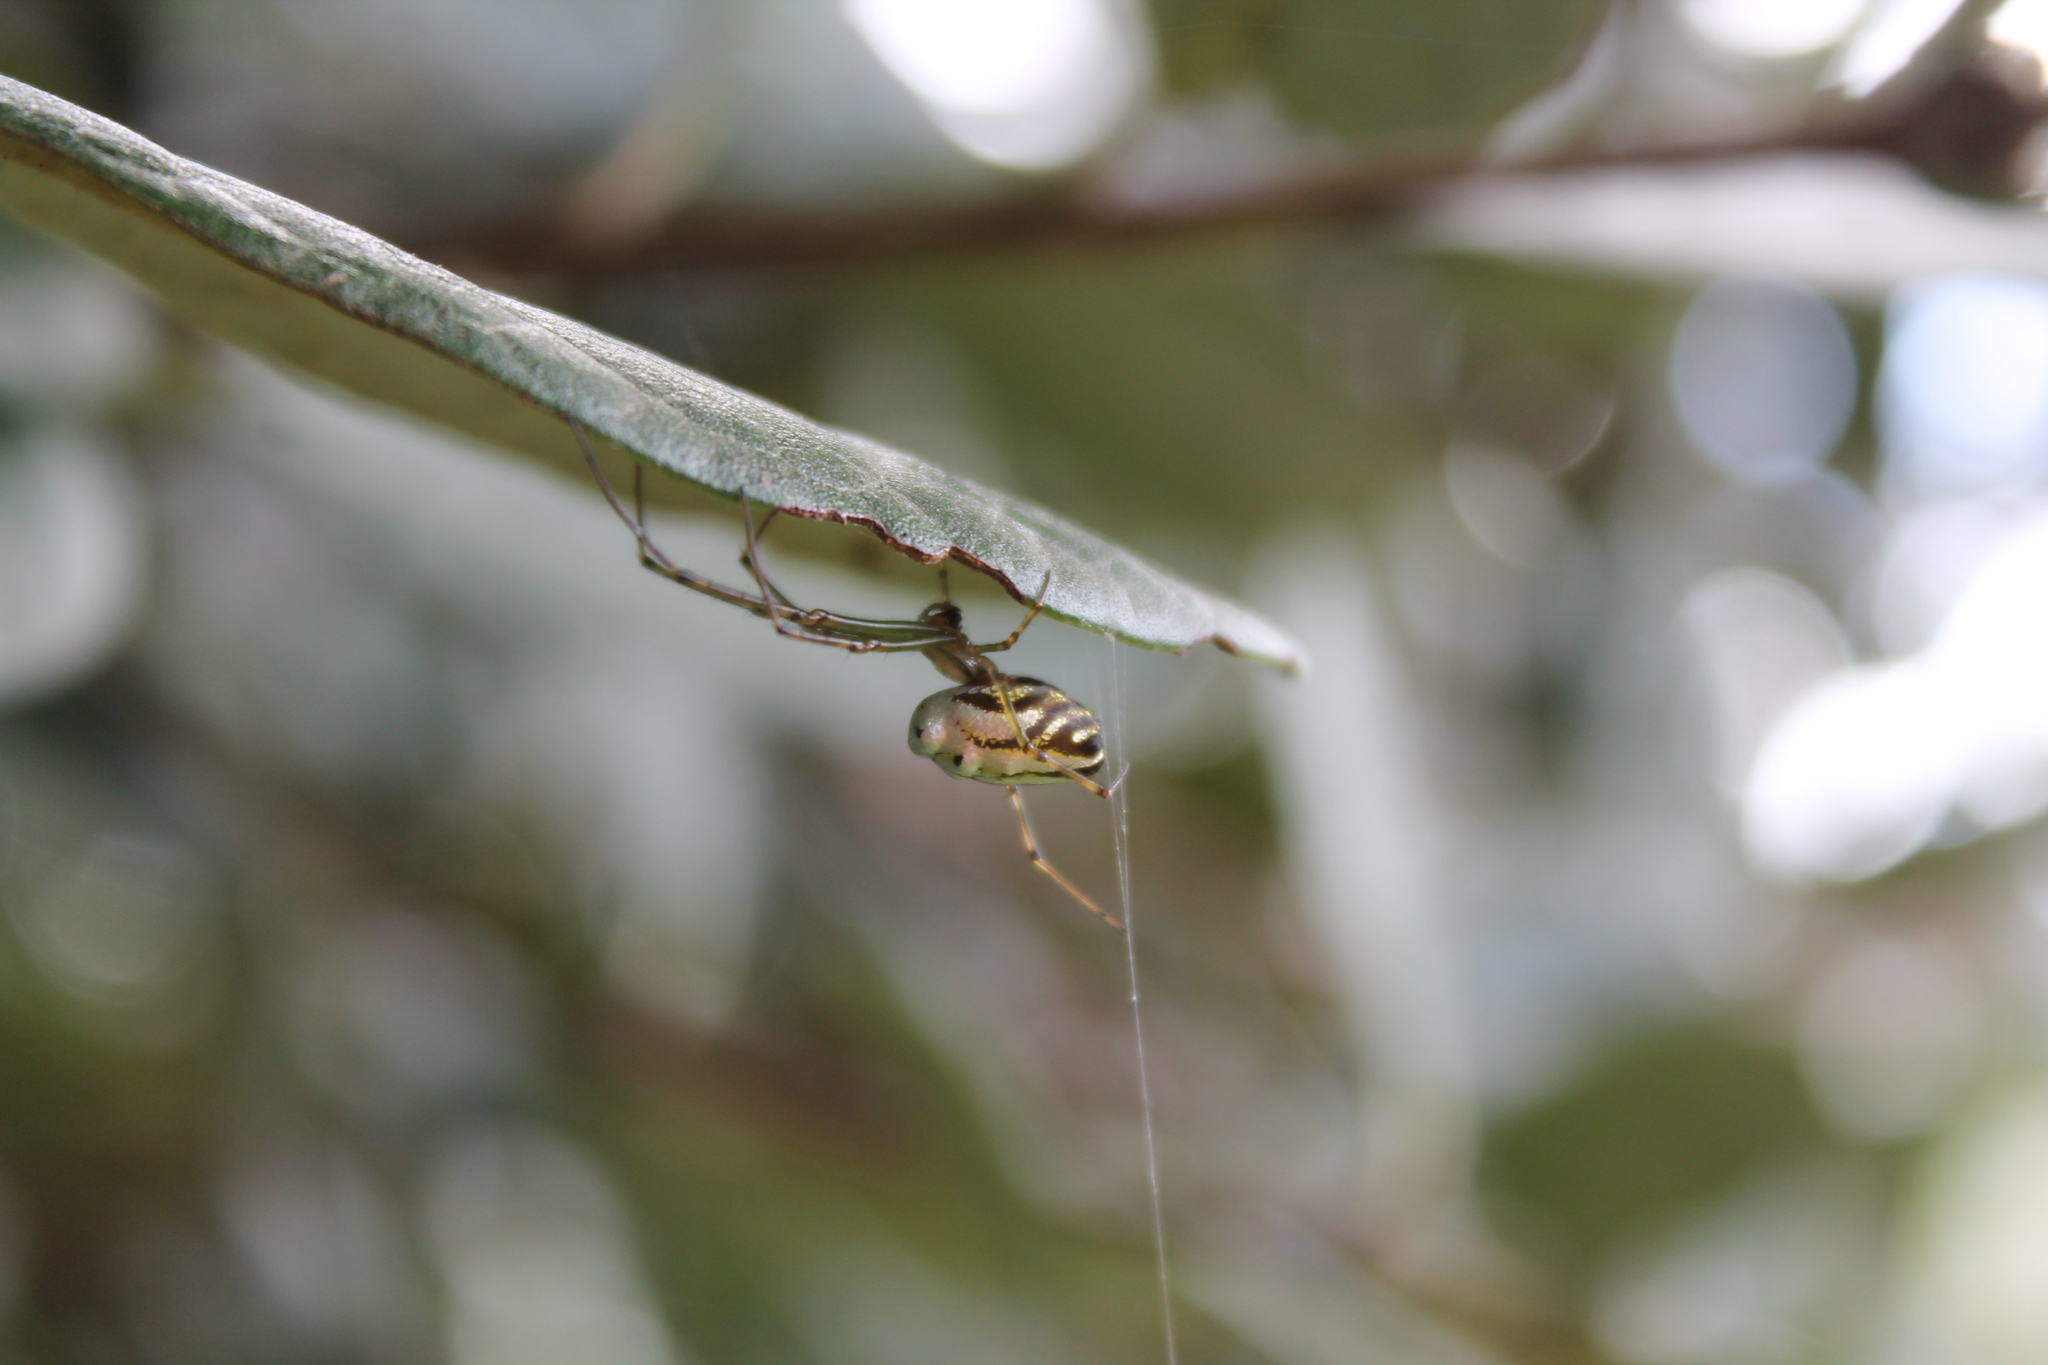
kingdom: Animalia
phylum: Arthropoda
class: Arachnida
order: Araneae
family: Tetragnathidae
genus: Leucauge
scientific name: Leucauge dromedaria
